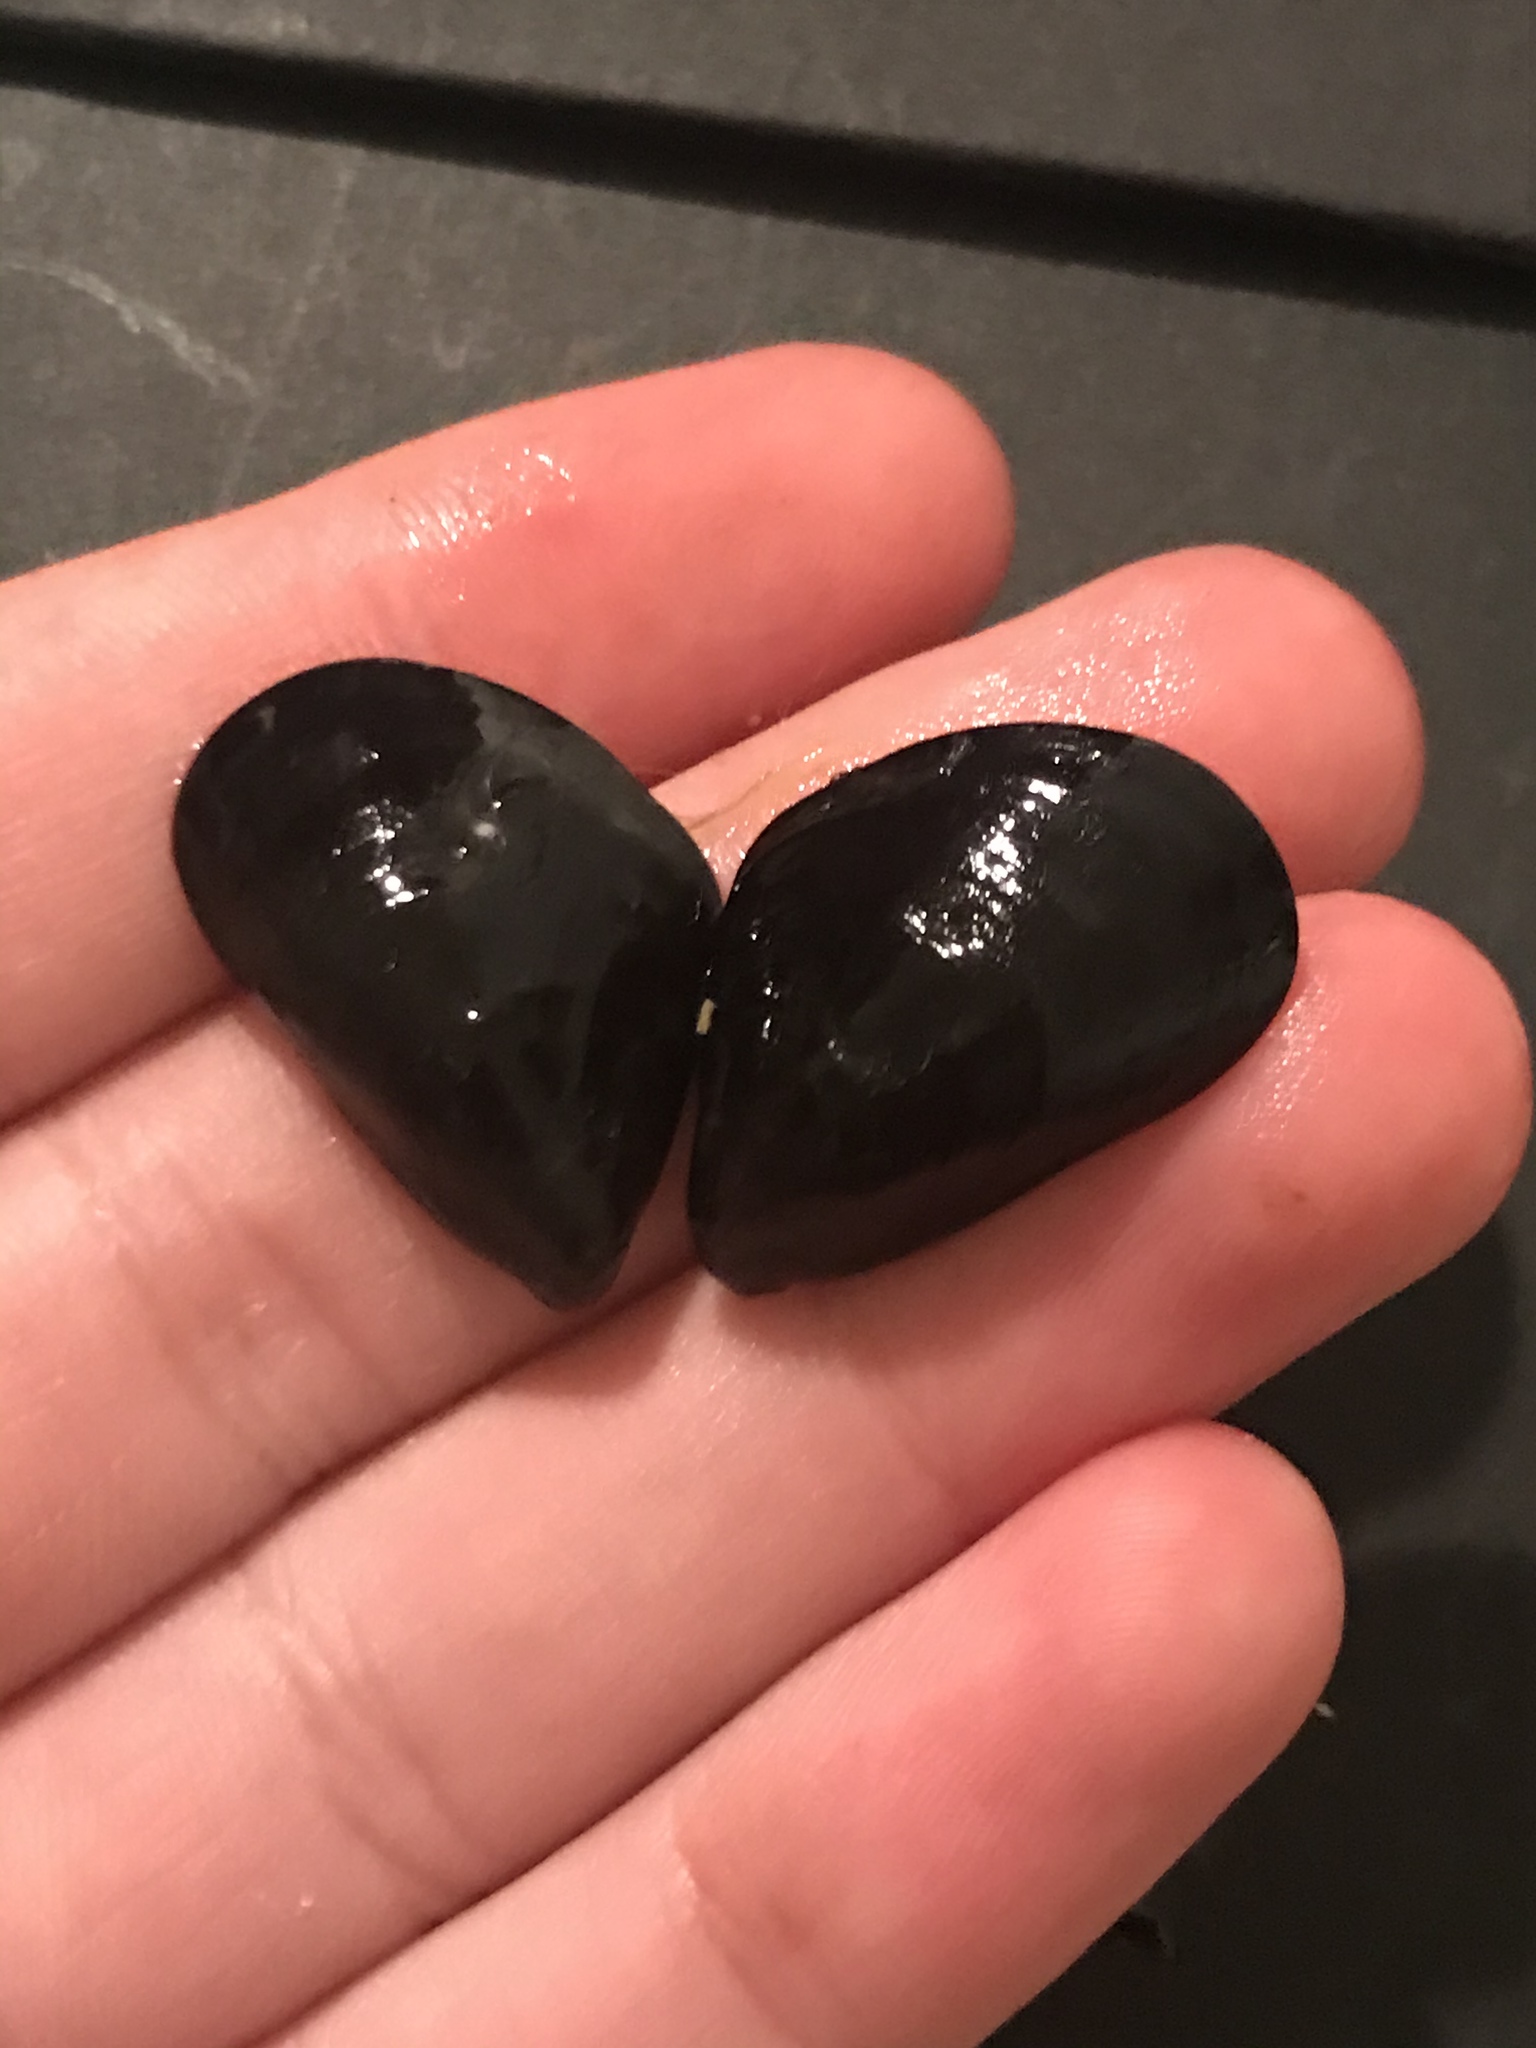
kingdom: Animalia
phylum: Mollusca
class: Bivalvia
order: Mytilida
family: Mytilidae
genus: Mytilus
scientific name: Mytilus
